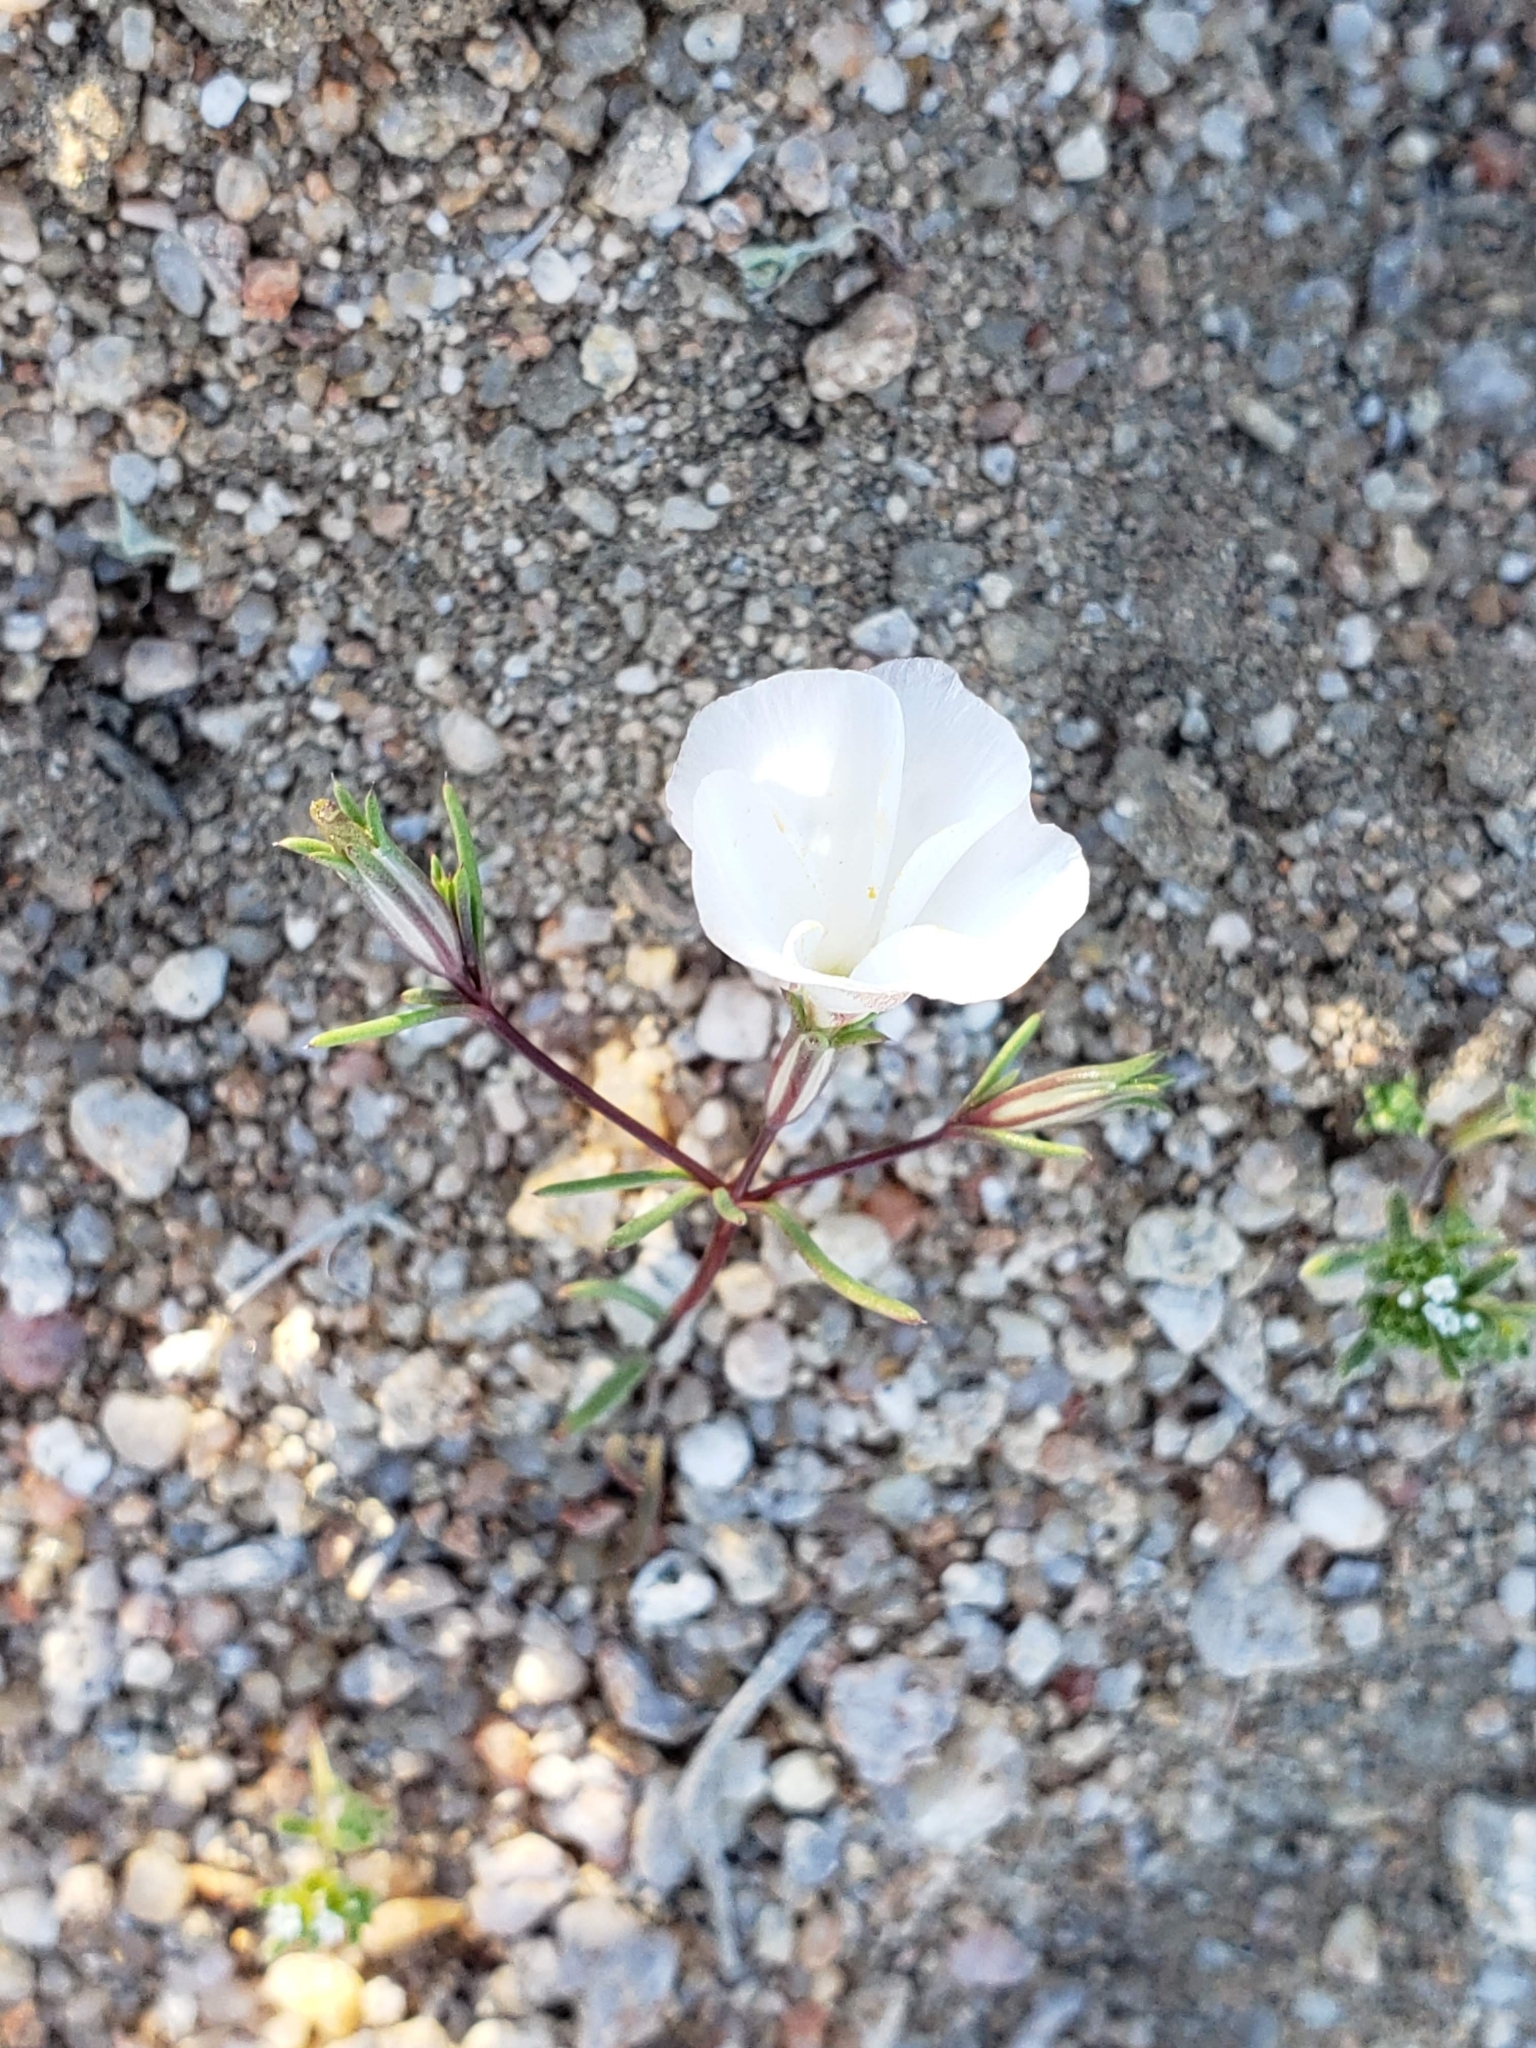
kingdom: Plantae
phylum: Tracheophyta
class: Magnoliopsida
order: Ericales
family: Polemoniaceae
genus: Linanthus
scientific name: Linanthus dichotomus
